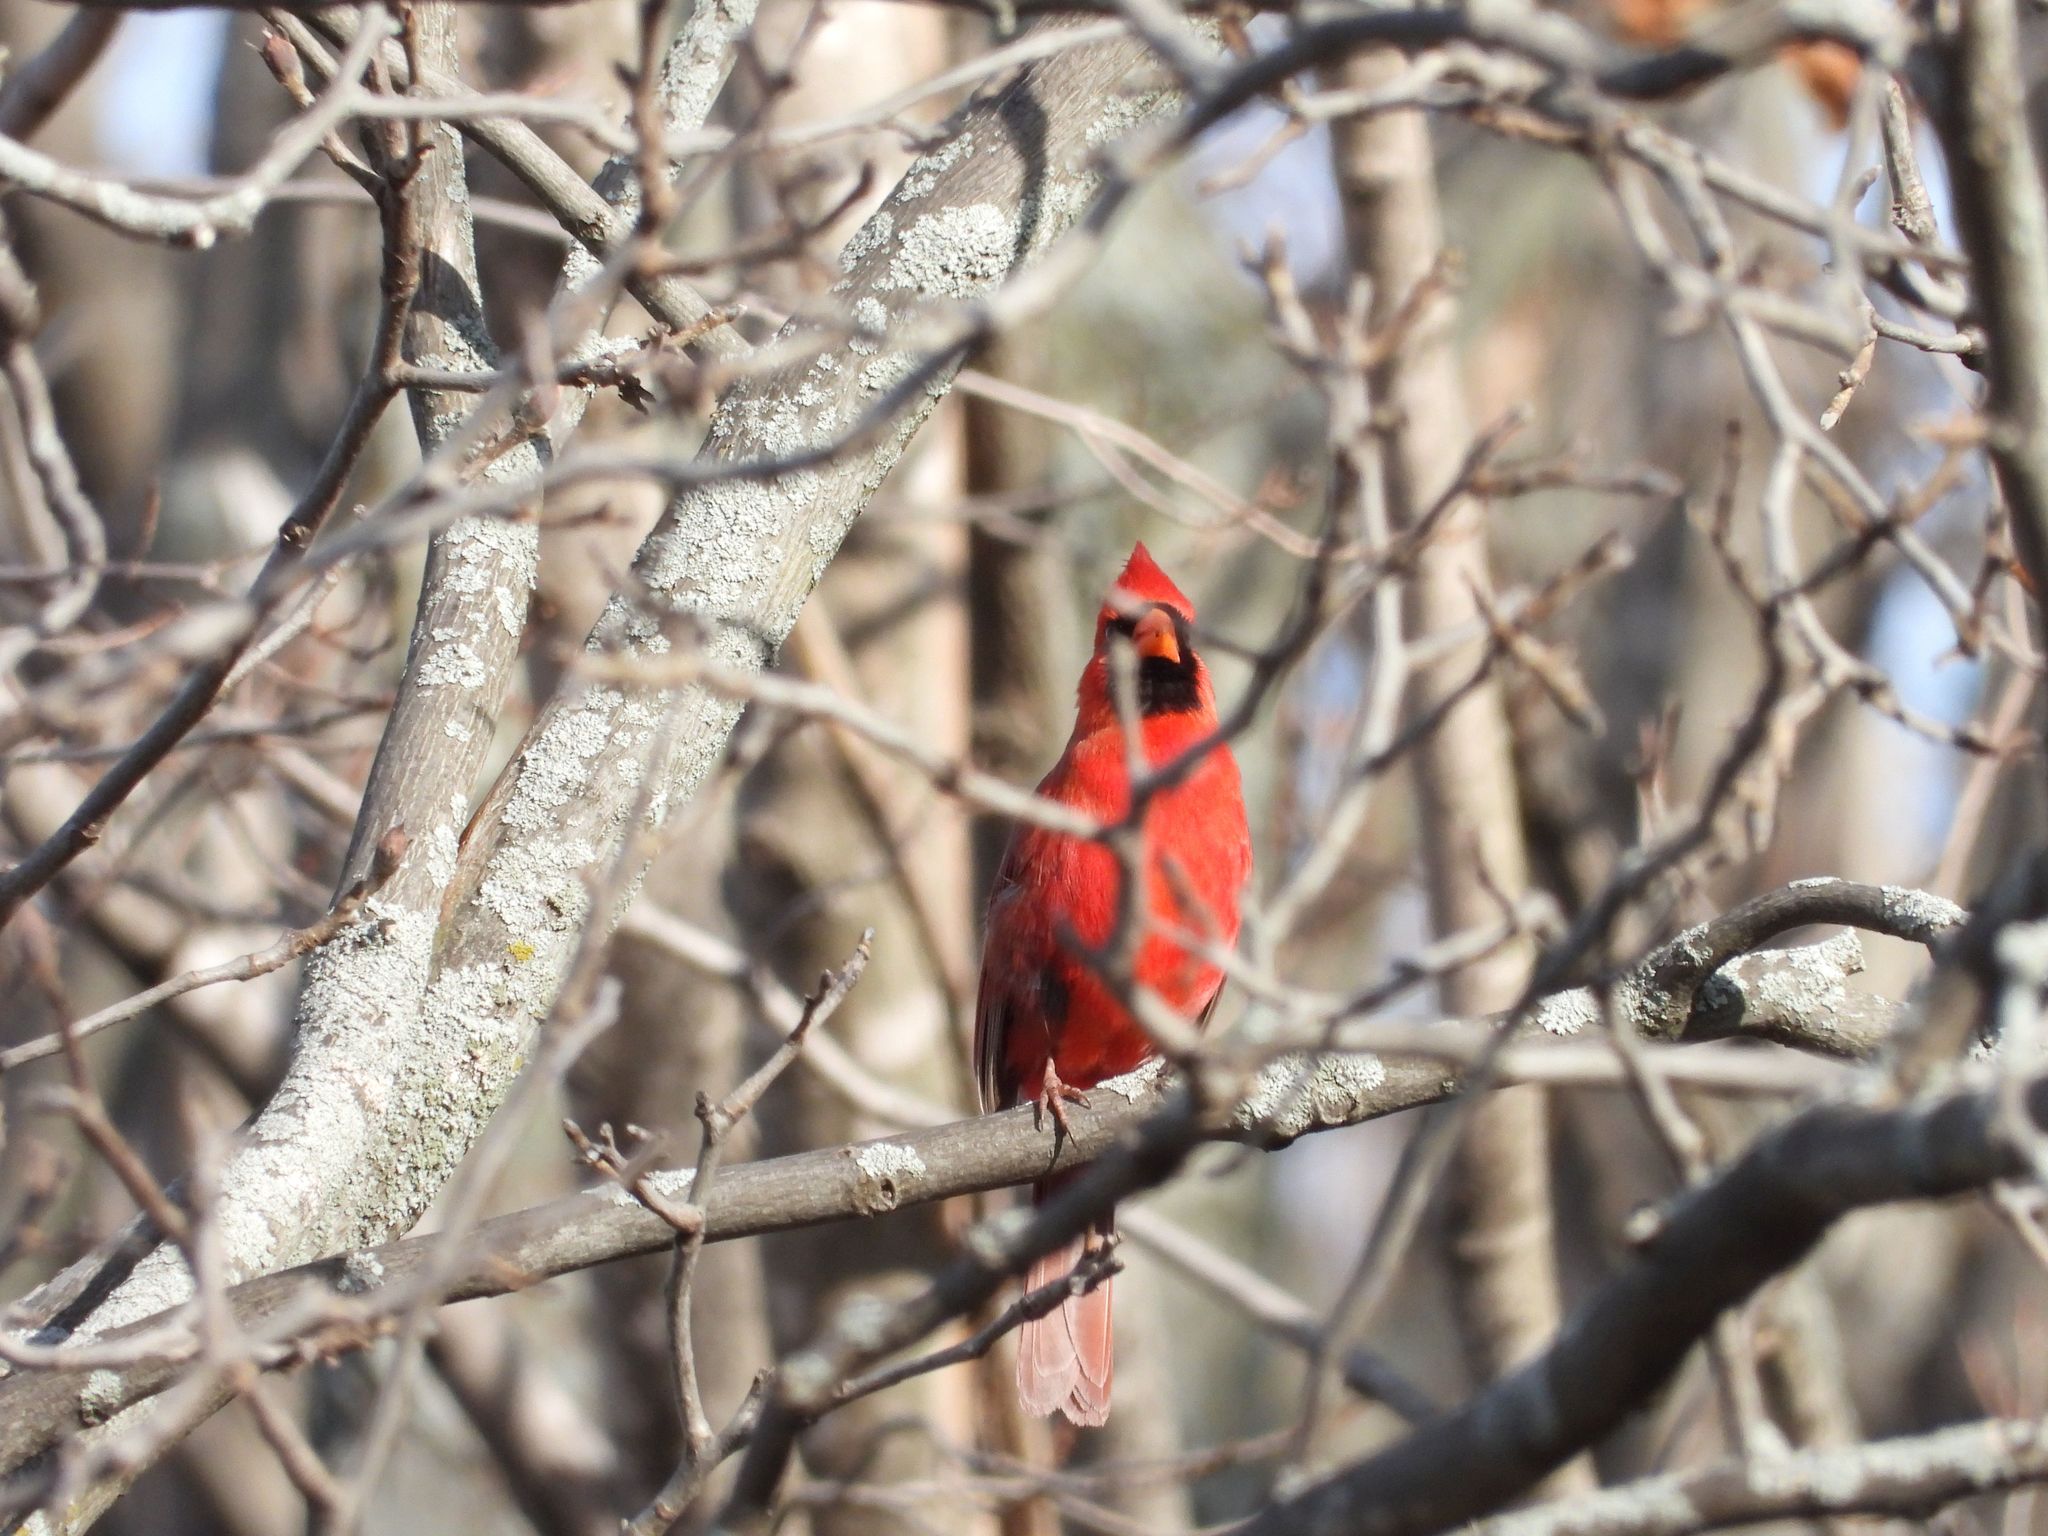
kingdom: Animalia
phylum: Chordata
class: Aves
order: Passeriformes
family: Cardinalidae
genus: Cardinalis
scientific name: Cardinalis cardinalis
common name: Northern cardinal
